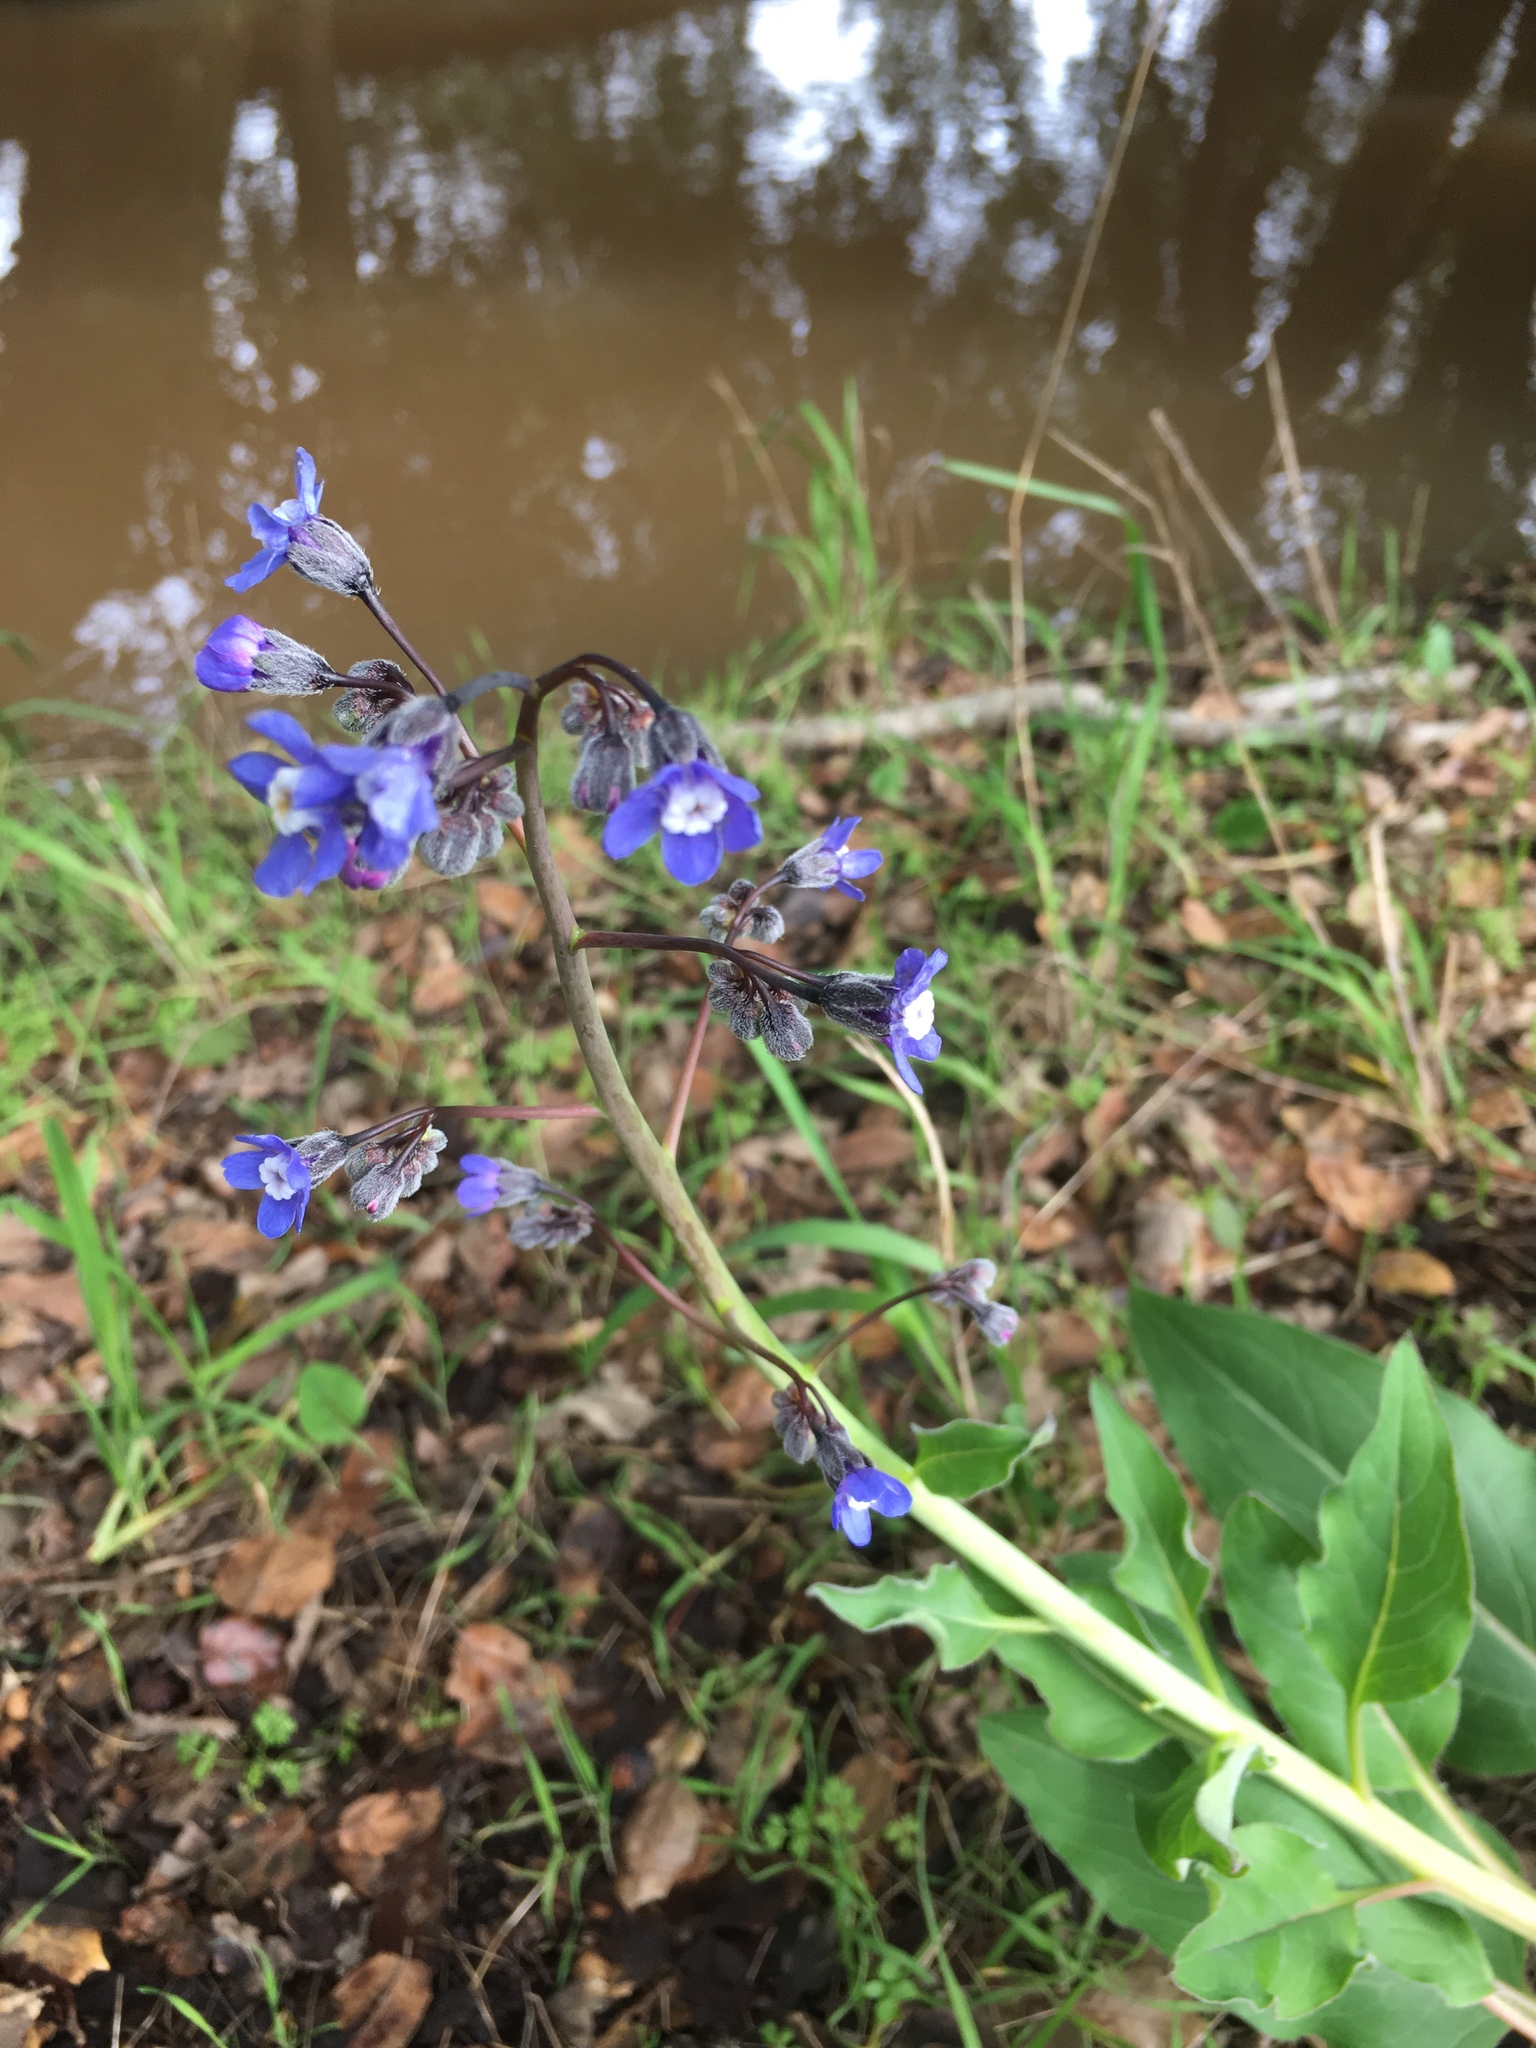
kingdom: Plantae
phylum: Tracheophyta
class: Magnoliopsida
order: Boraginales
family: Boraginaceae
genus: Adelinia
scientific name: Adelinia grande
